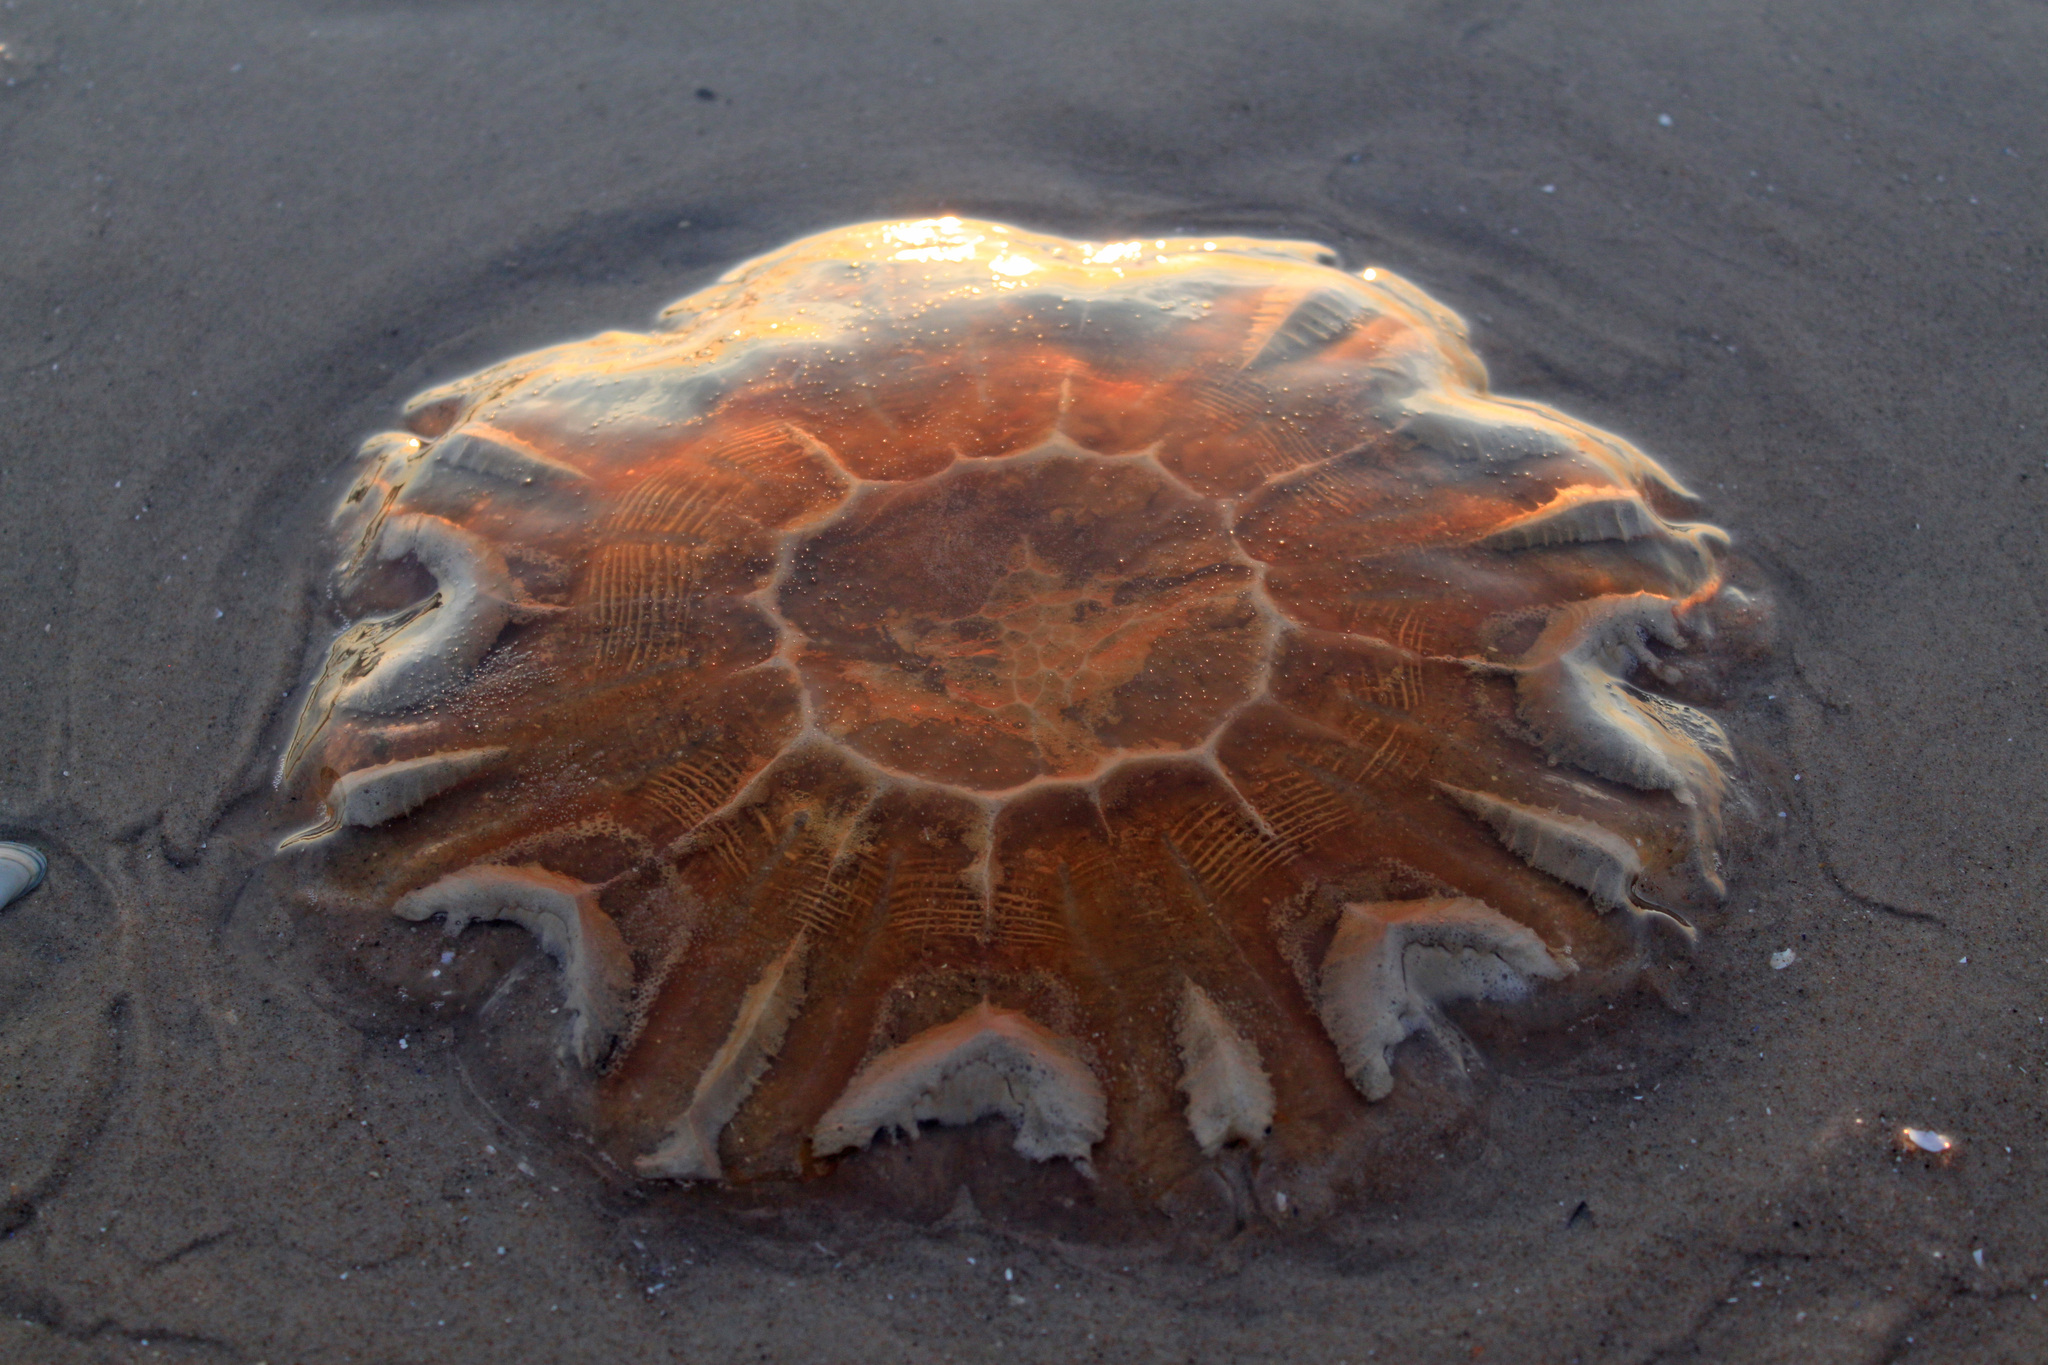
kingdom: Animalia
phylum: Cnidaria
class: Scyphozoa
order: Semaeostomeae
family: Cyaneidae
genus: Cyanea
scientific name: Cyanea capillata
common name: Lion's mane jellyfish
